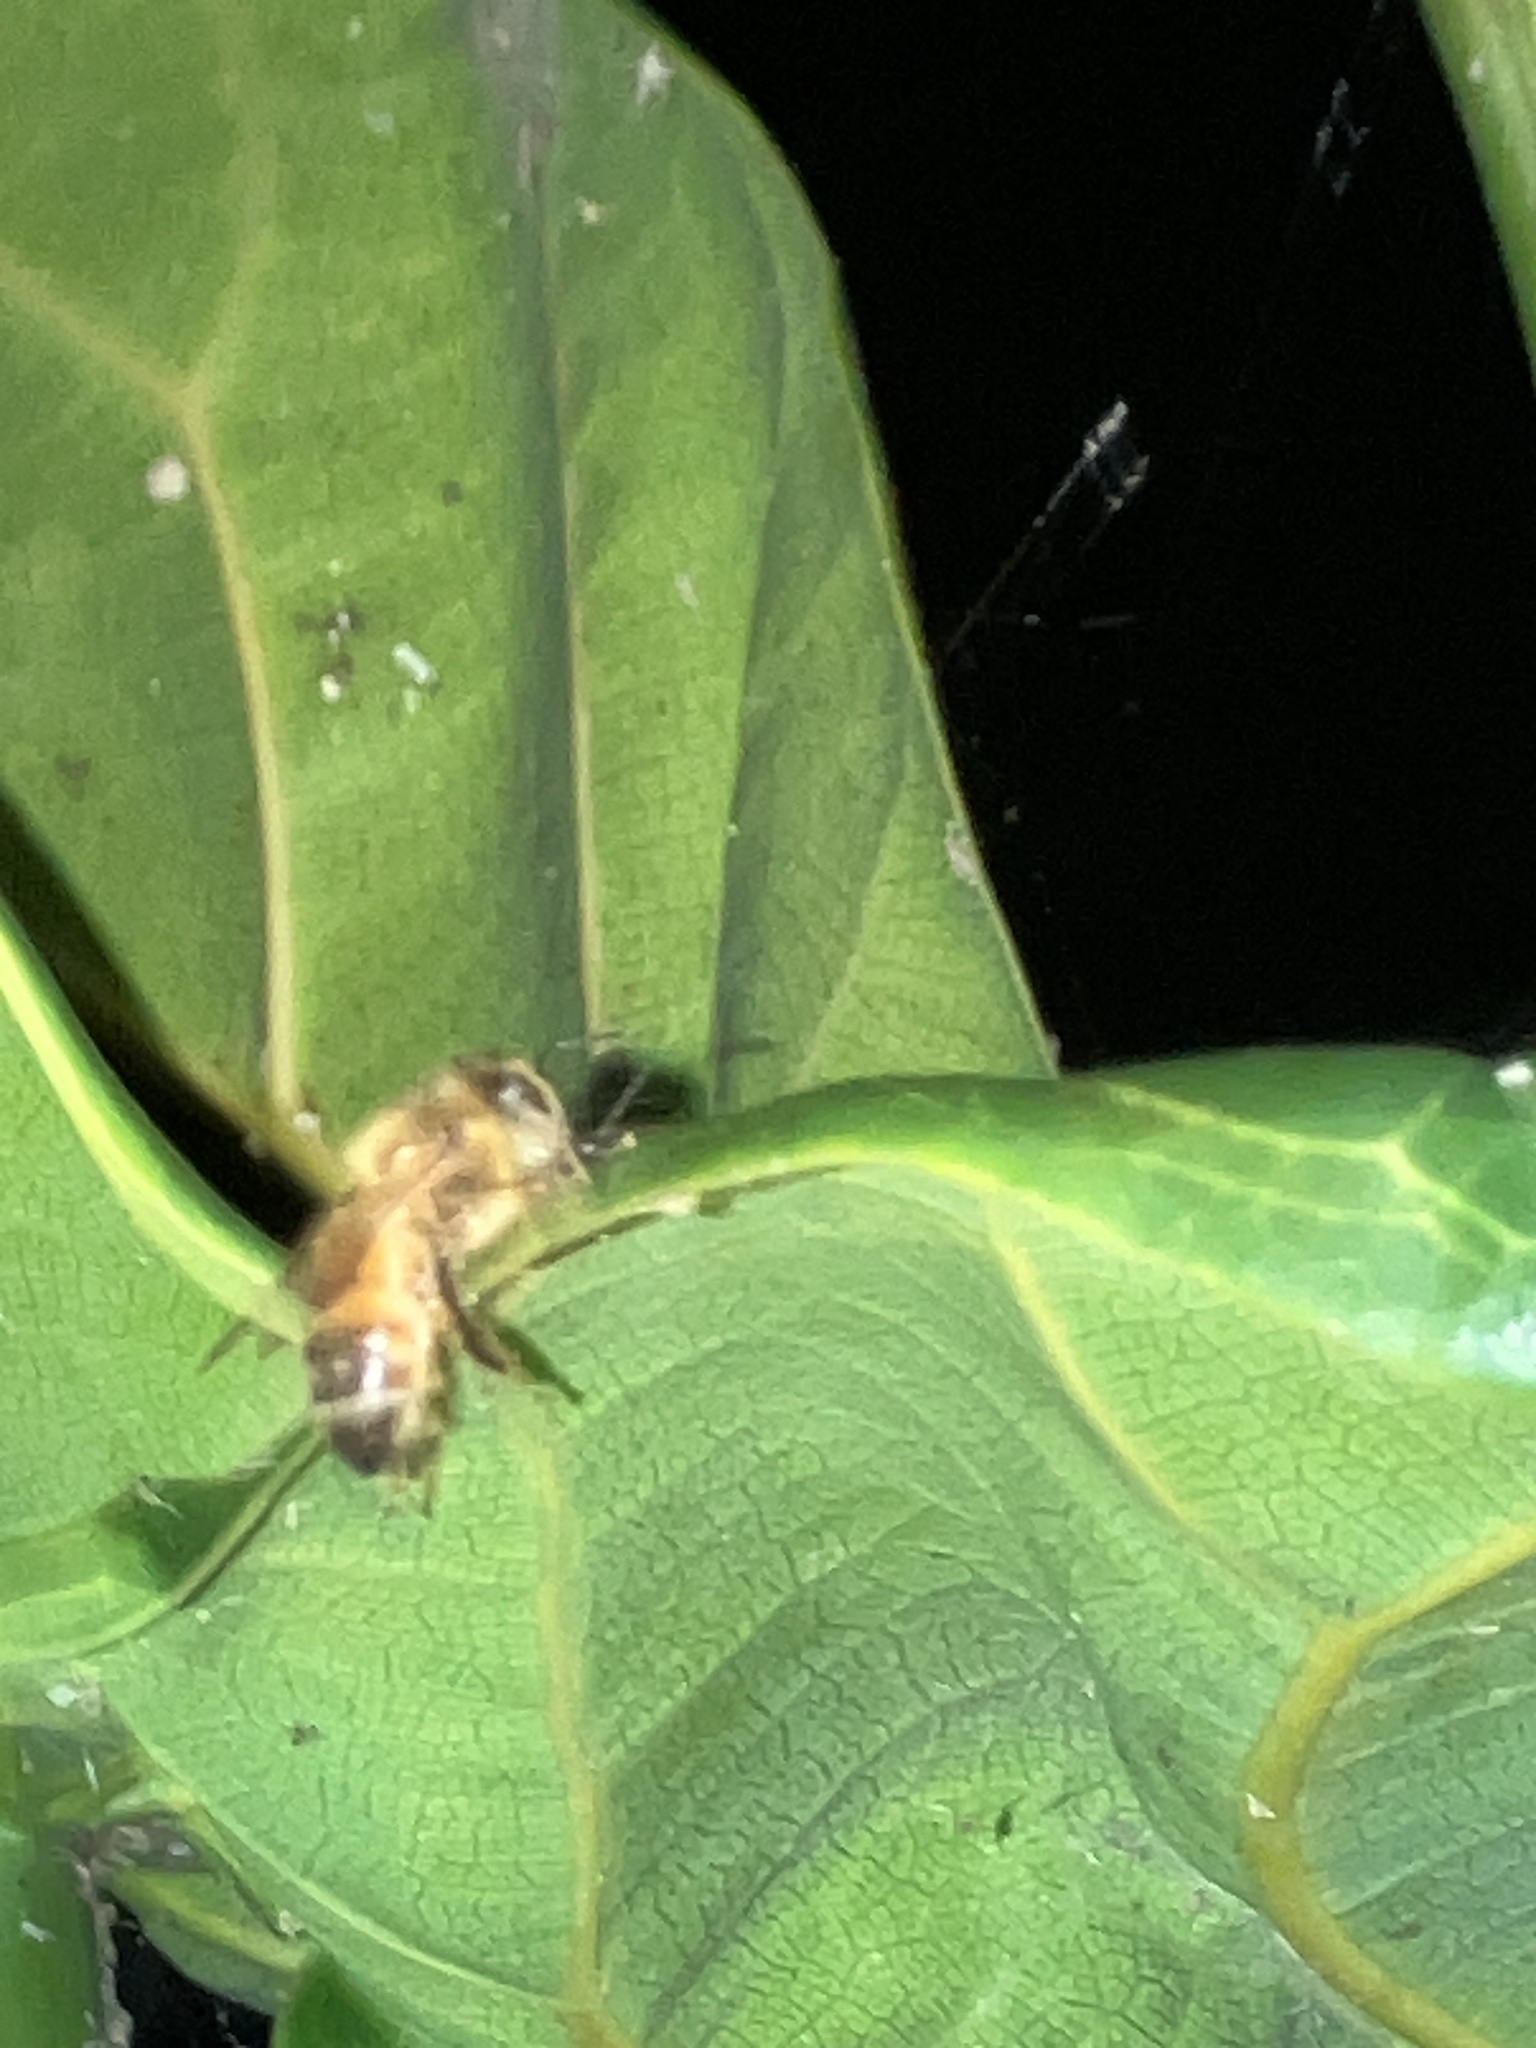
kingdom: Animalia
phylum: Arthropoda
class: Insecta
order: Hymenoptera
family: Apidae
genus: Apis
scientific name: Apis mellifera
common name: Honey bee
